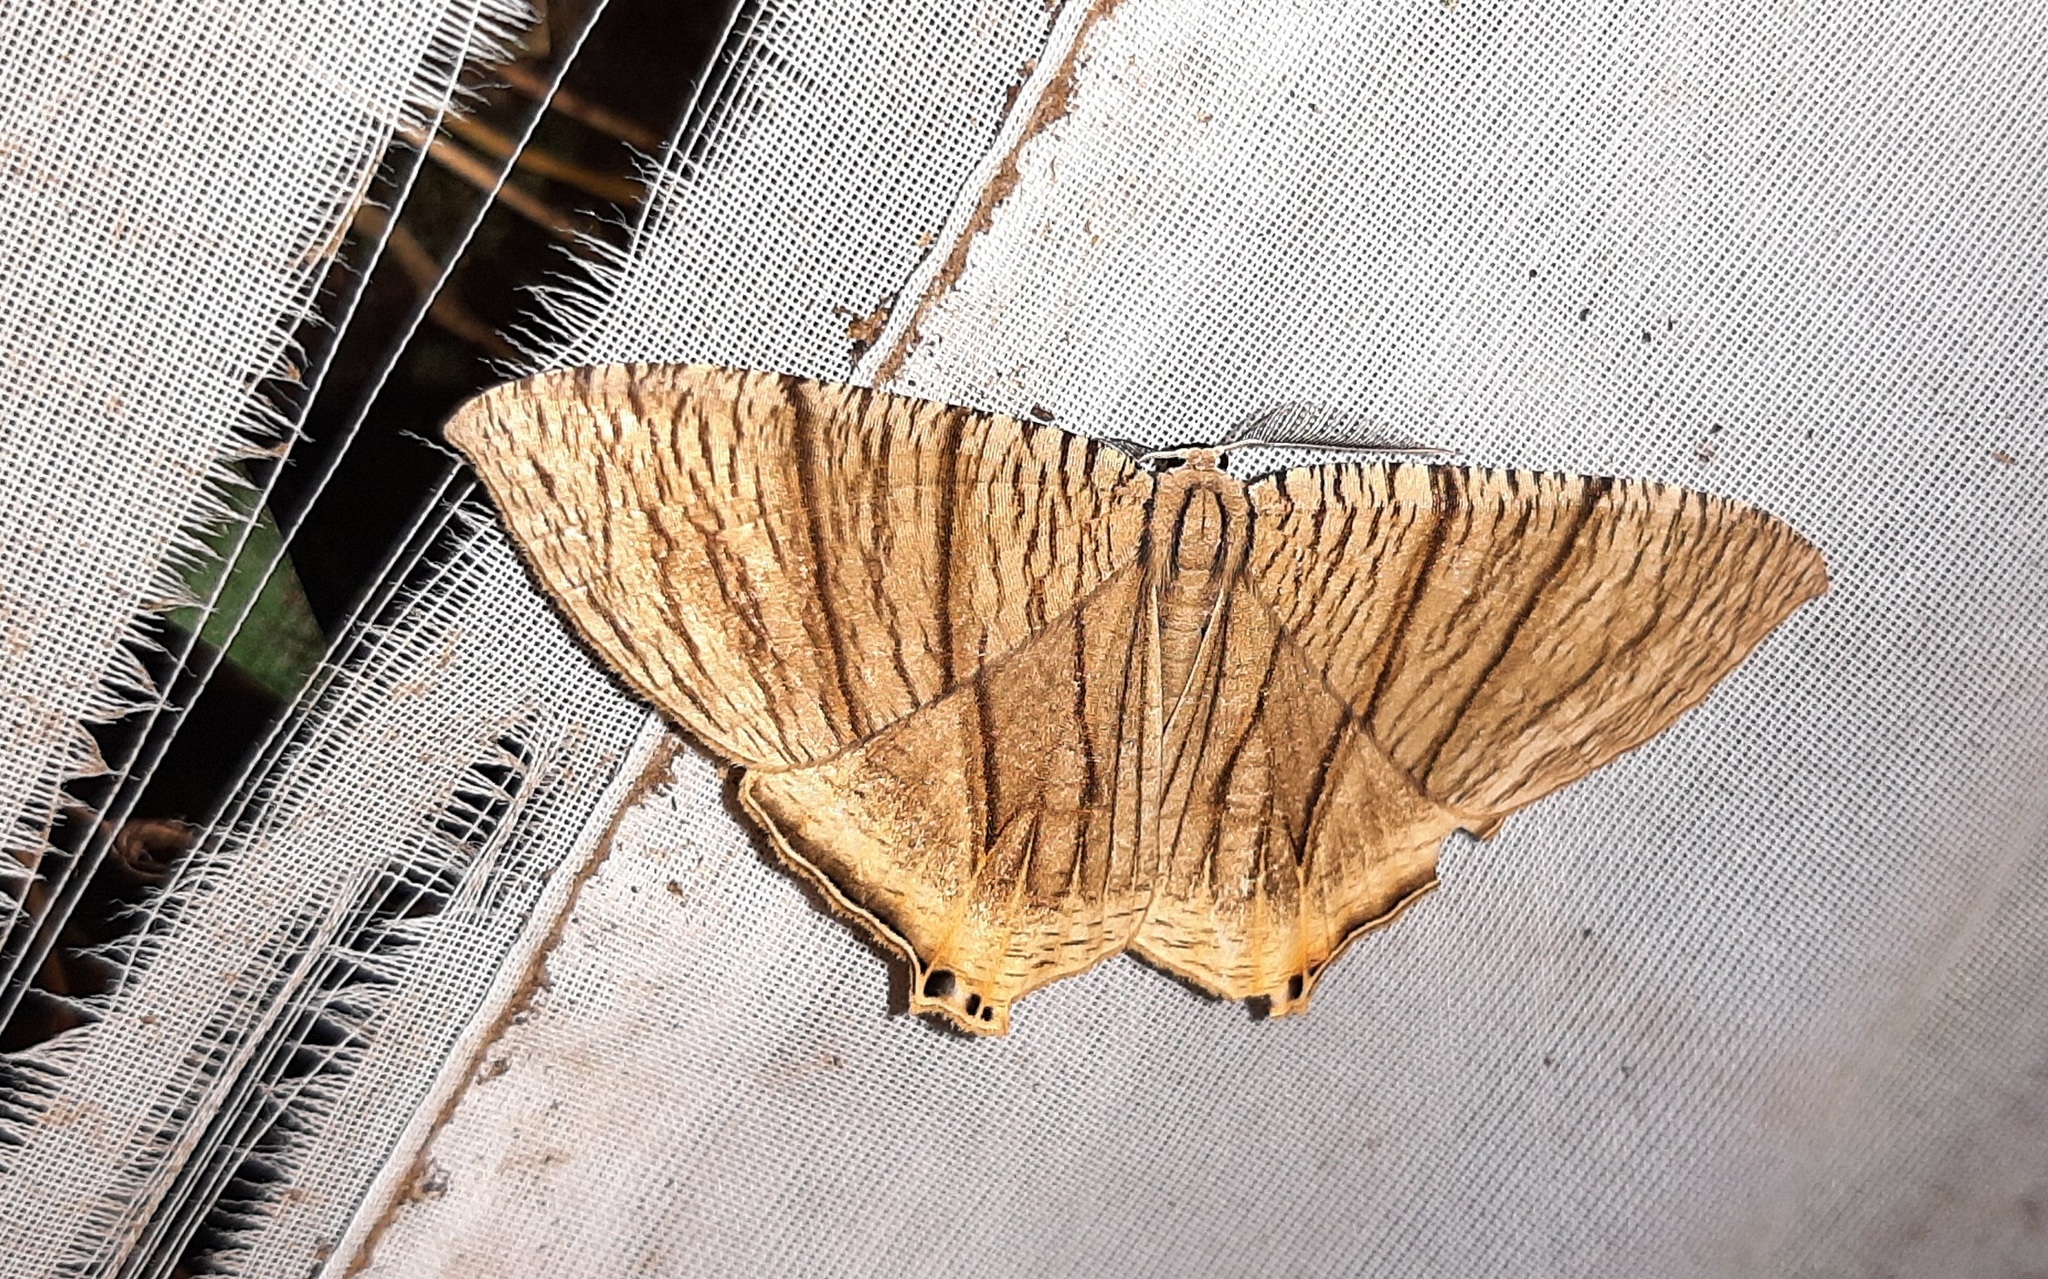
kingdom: Animalia
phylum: Arthropoda
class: Insecta
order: Lepidoptera
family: Uraniidae
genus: Meleaba
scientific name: Meleaba theclaria
